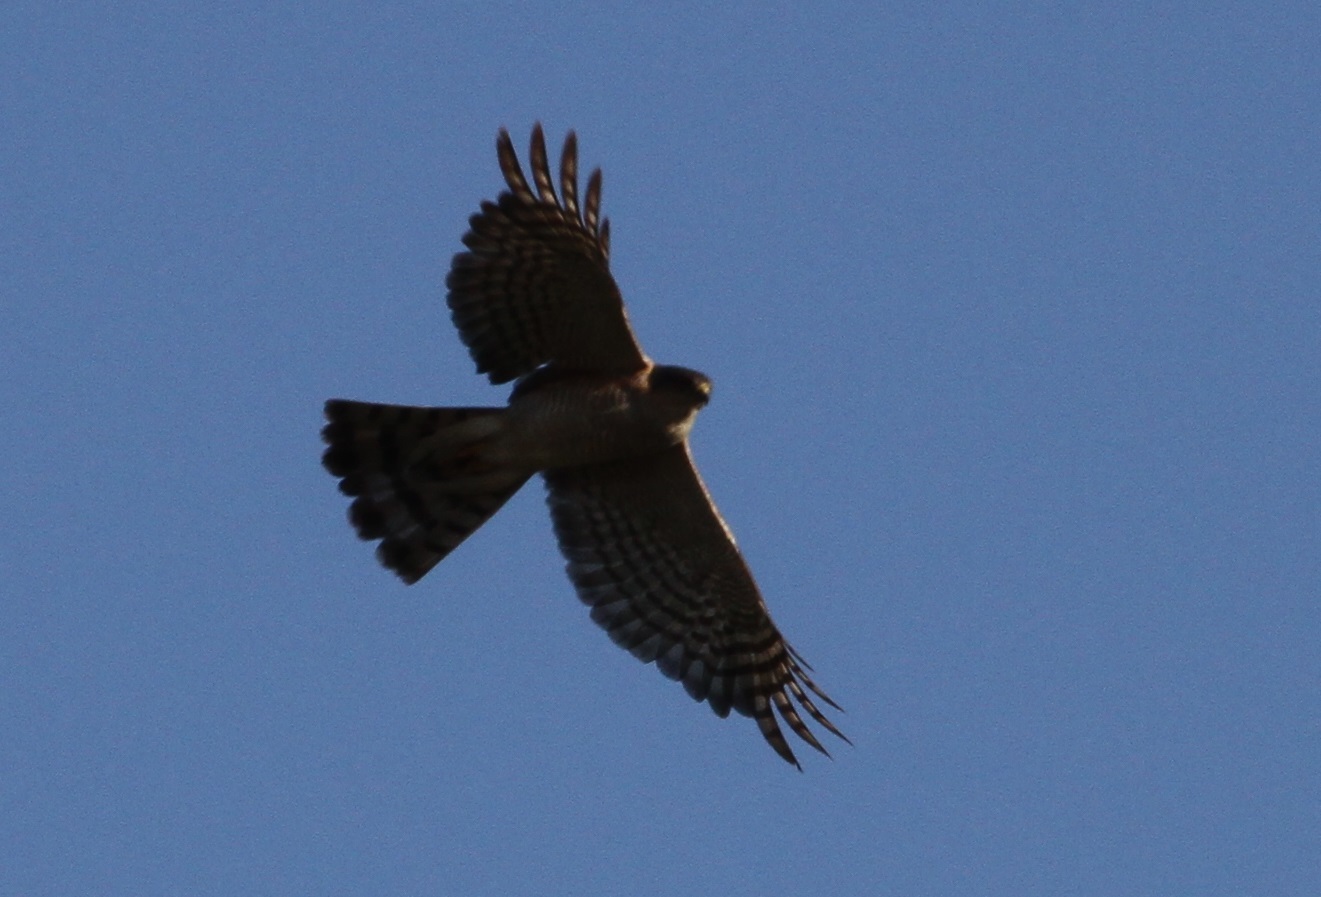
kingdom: Animalia
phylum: Chordata
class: Aves
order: Accipitriformes
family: Accipitridae
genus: Accipiter
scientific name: Accipiter nisus
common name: Eurasian sparrowhawk
